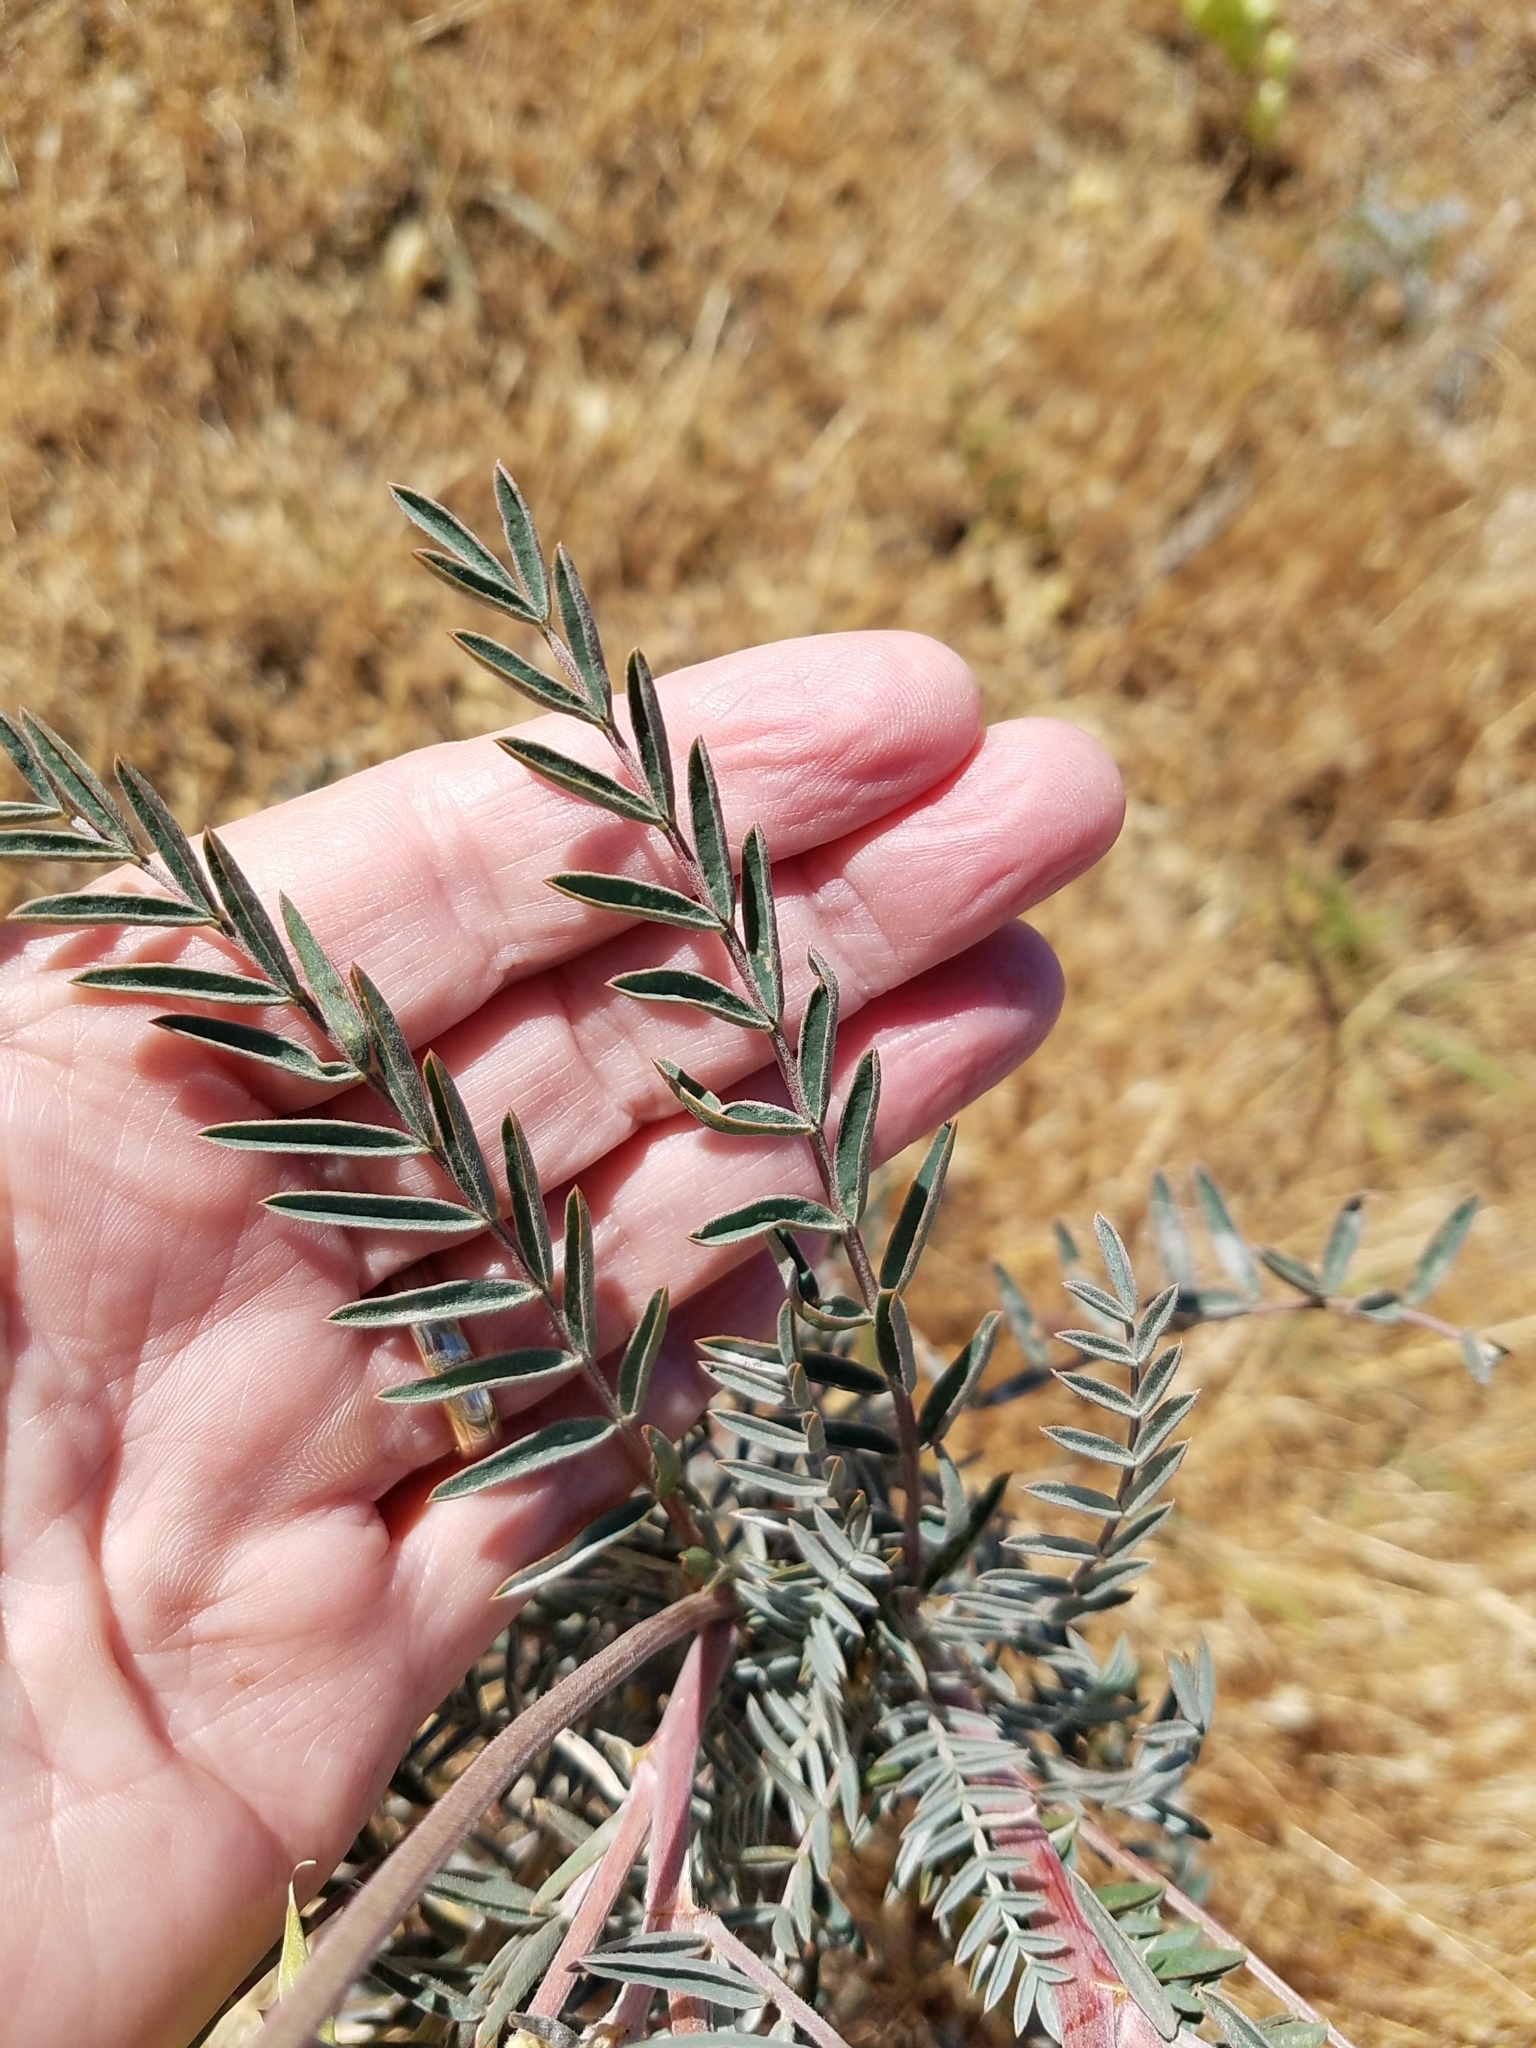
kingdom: Plantae
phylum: Tracheophyta
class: Magnoliopsida
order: Fabales
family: Fabaceae
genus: Astragalus
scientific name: Astragalus asymmetricus
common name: Horse locoweed
